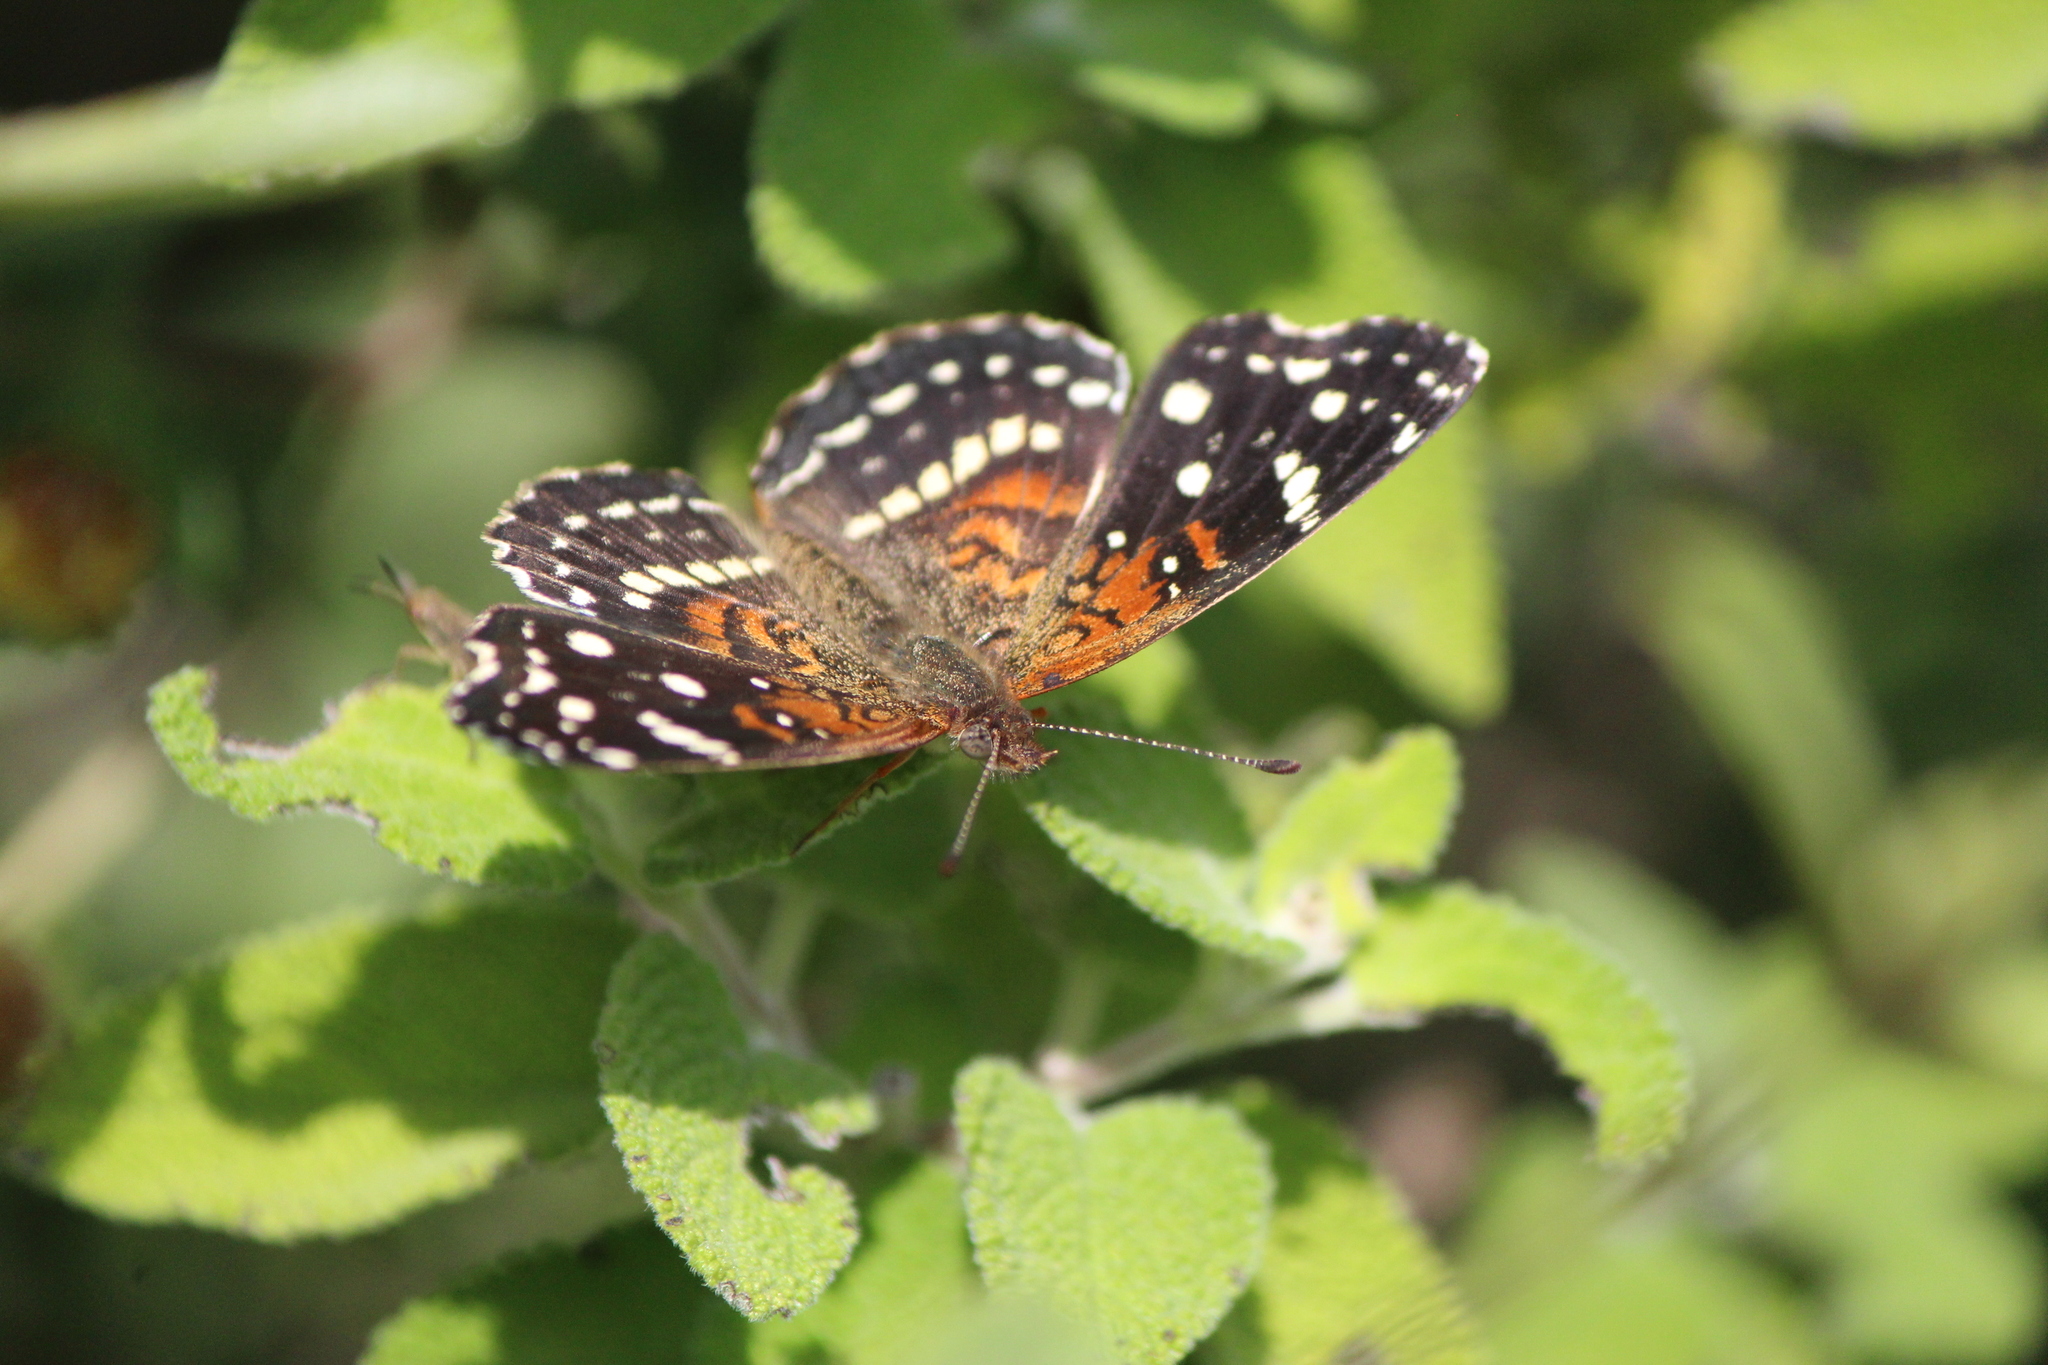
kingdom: Animalia
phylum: Arthropoda
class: Insecta
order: Lepidoptera
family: Nymphalidae
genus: Anthanassa
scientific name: Anthanassa texana
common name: Texan crescent
